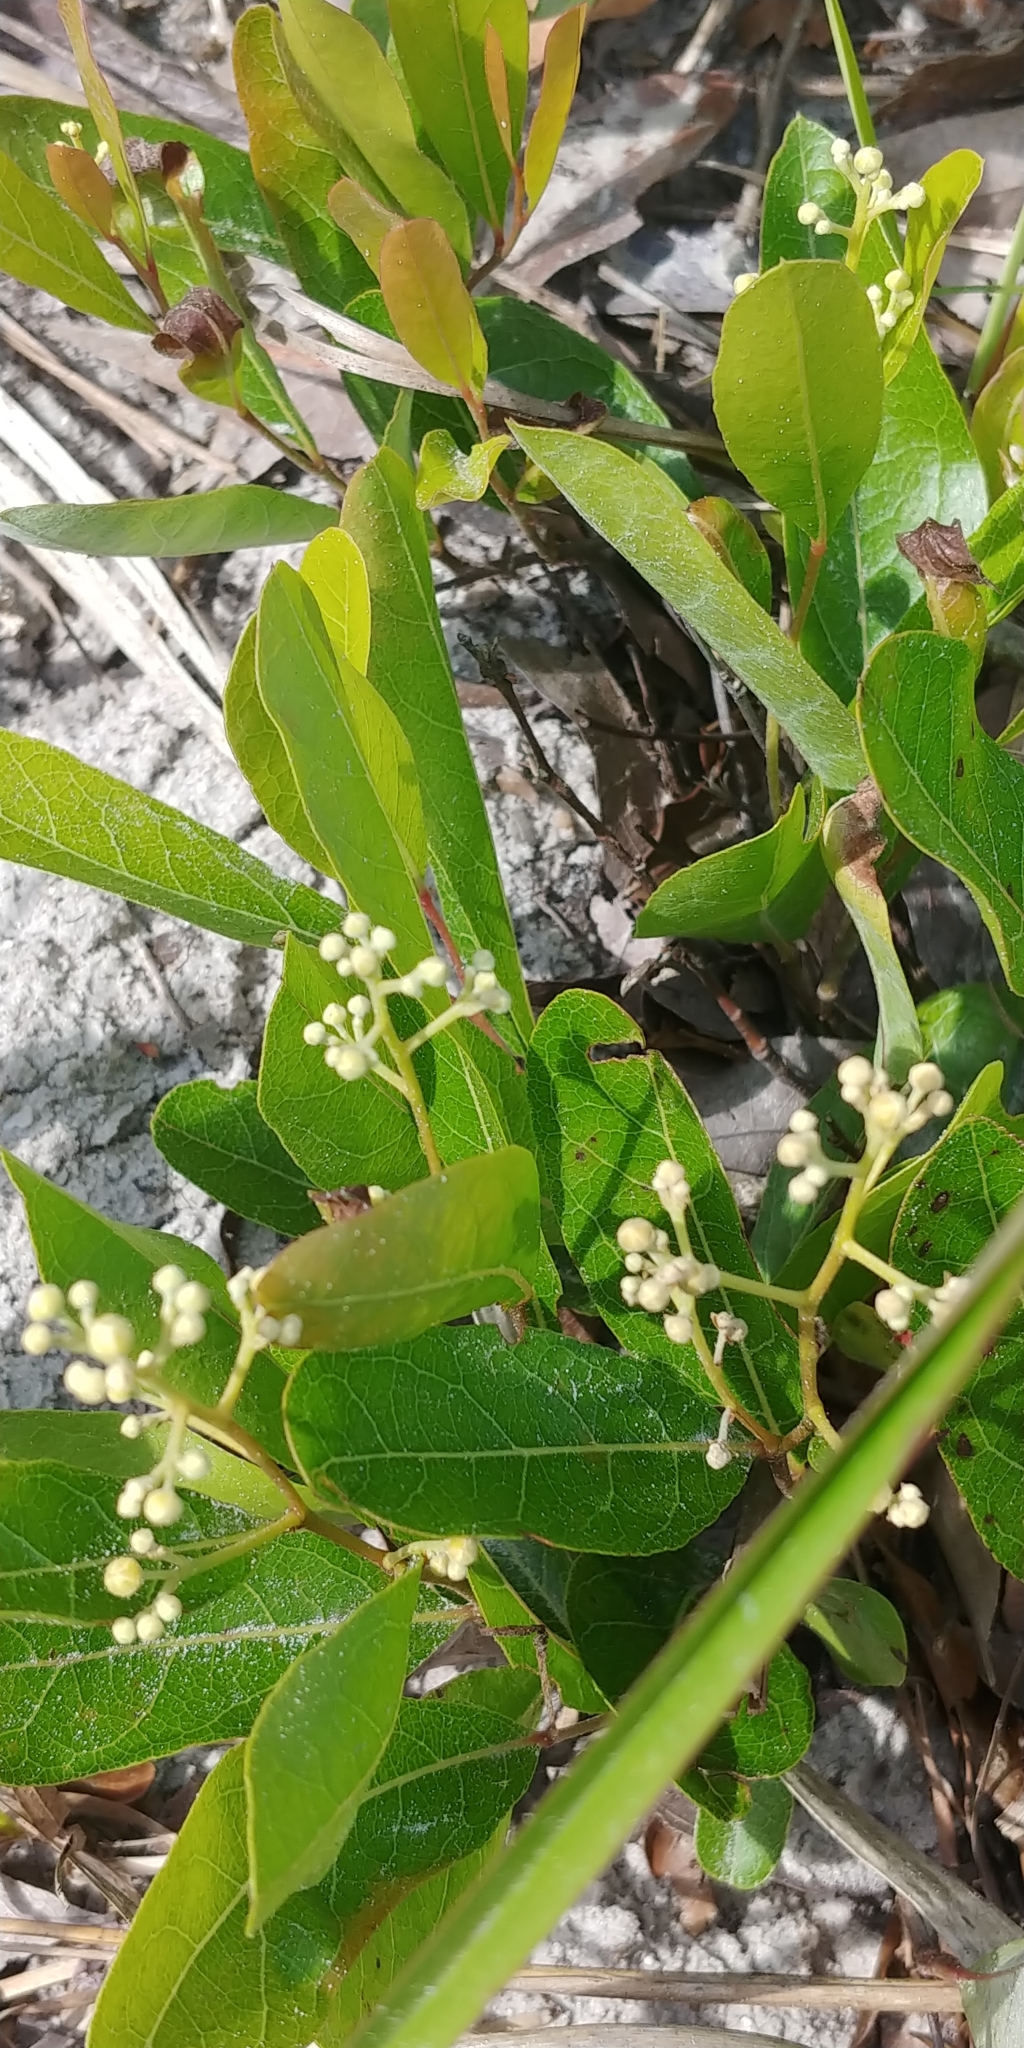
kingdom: Plantae
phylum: Tracheophyta
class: Magnoliopsida
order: Malpighiales
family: Chrysobalanaceae
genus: Geobalanus
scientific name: Geobalanus oblongifolius
